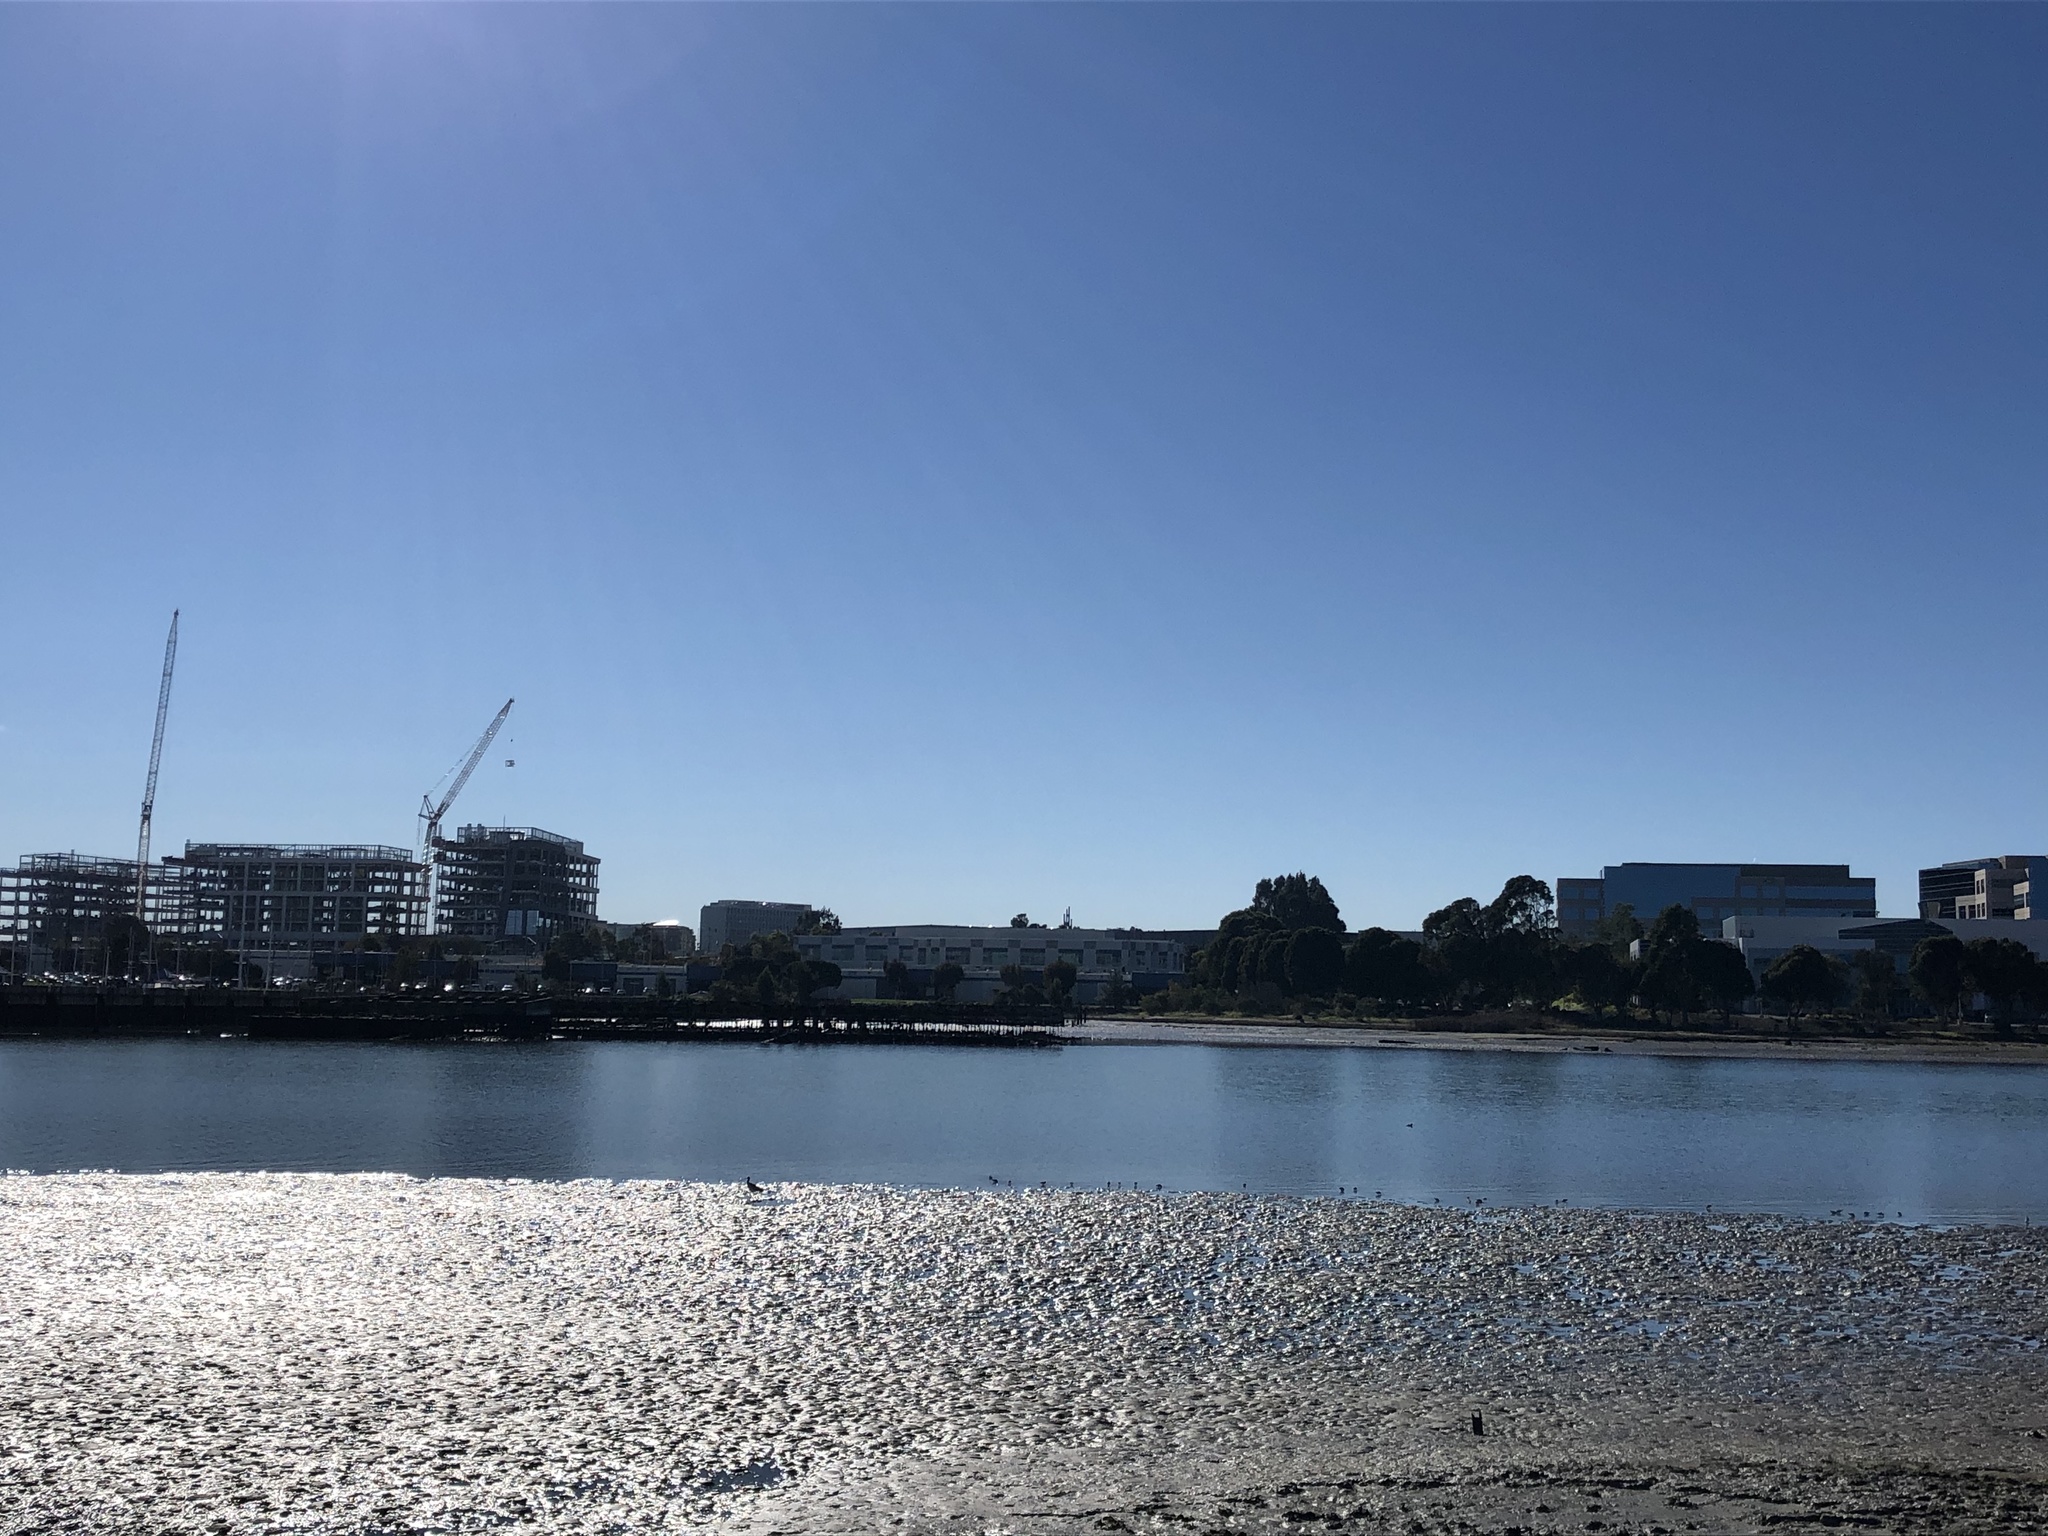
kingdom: Animalia
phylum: Chordata
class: Aves
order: Charadriiformes
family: Scolopacidae
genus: Numenius
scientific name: Numenius americanus
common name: Long-billed curlew
